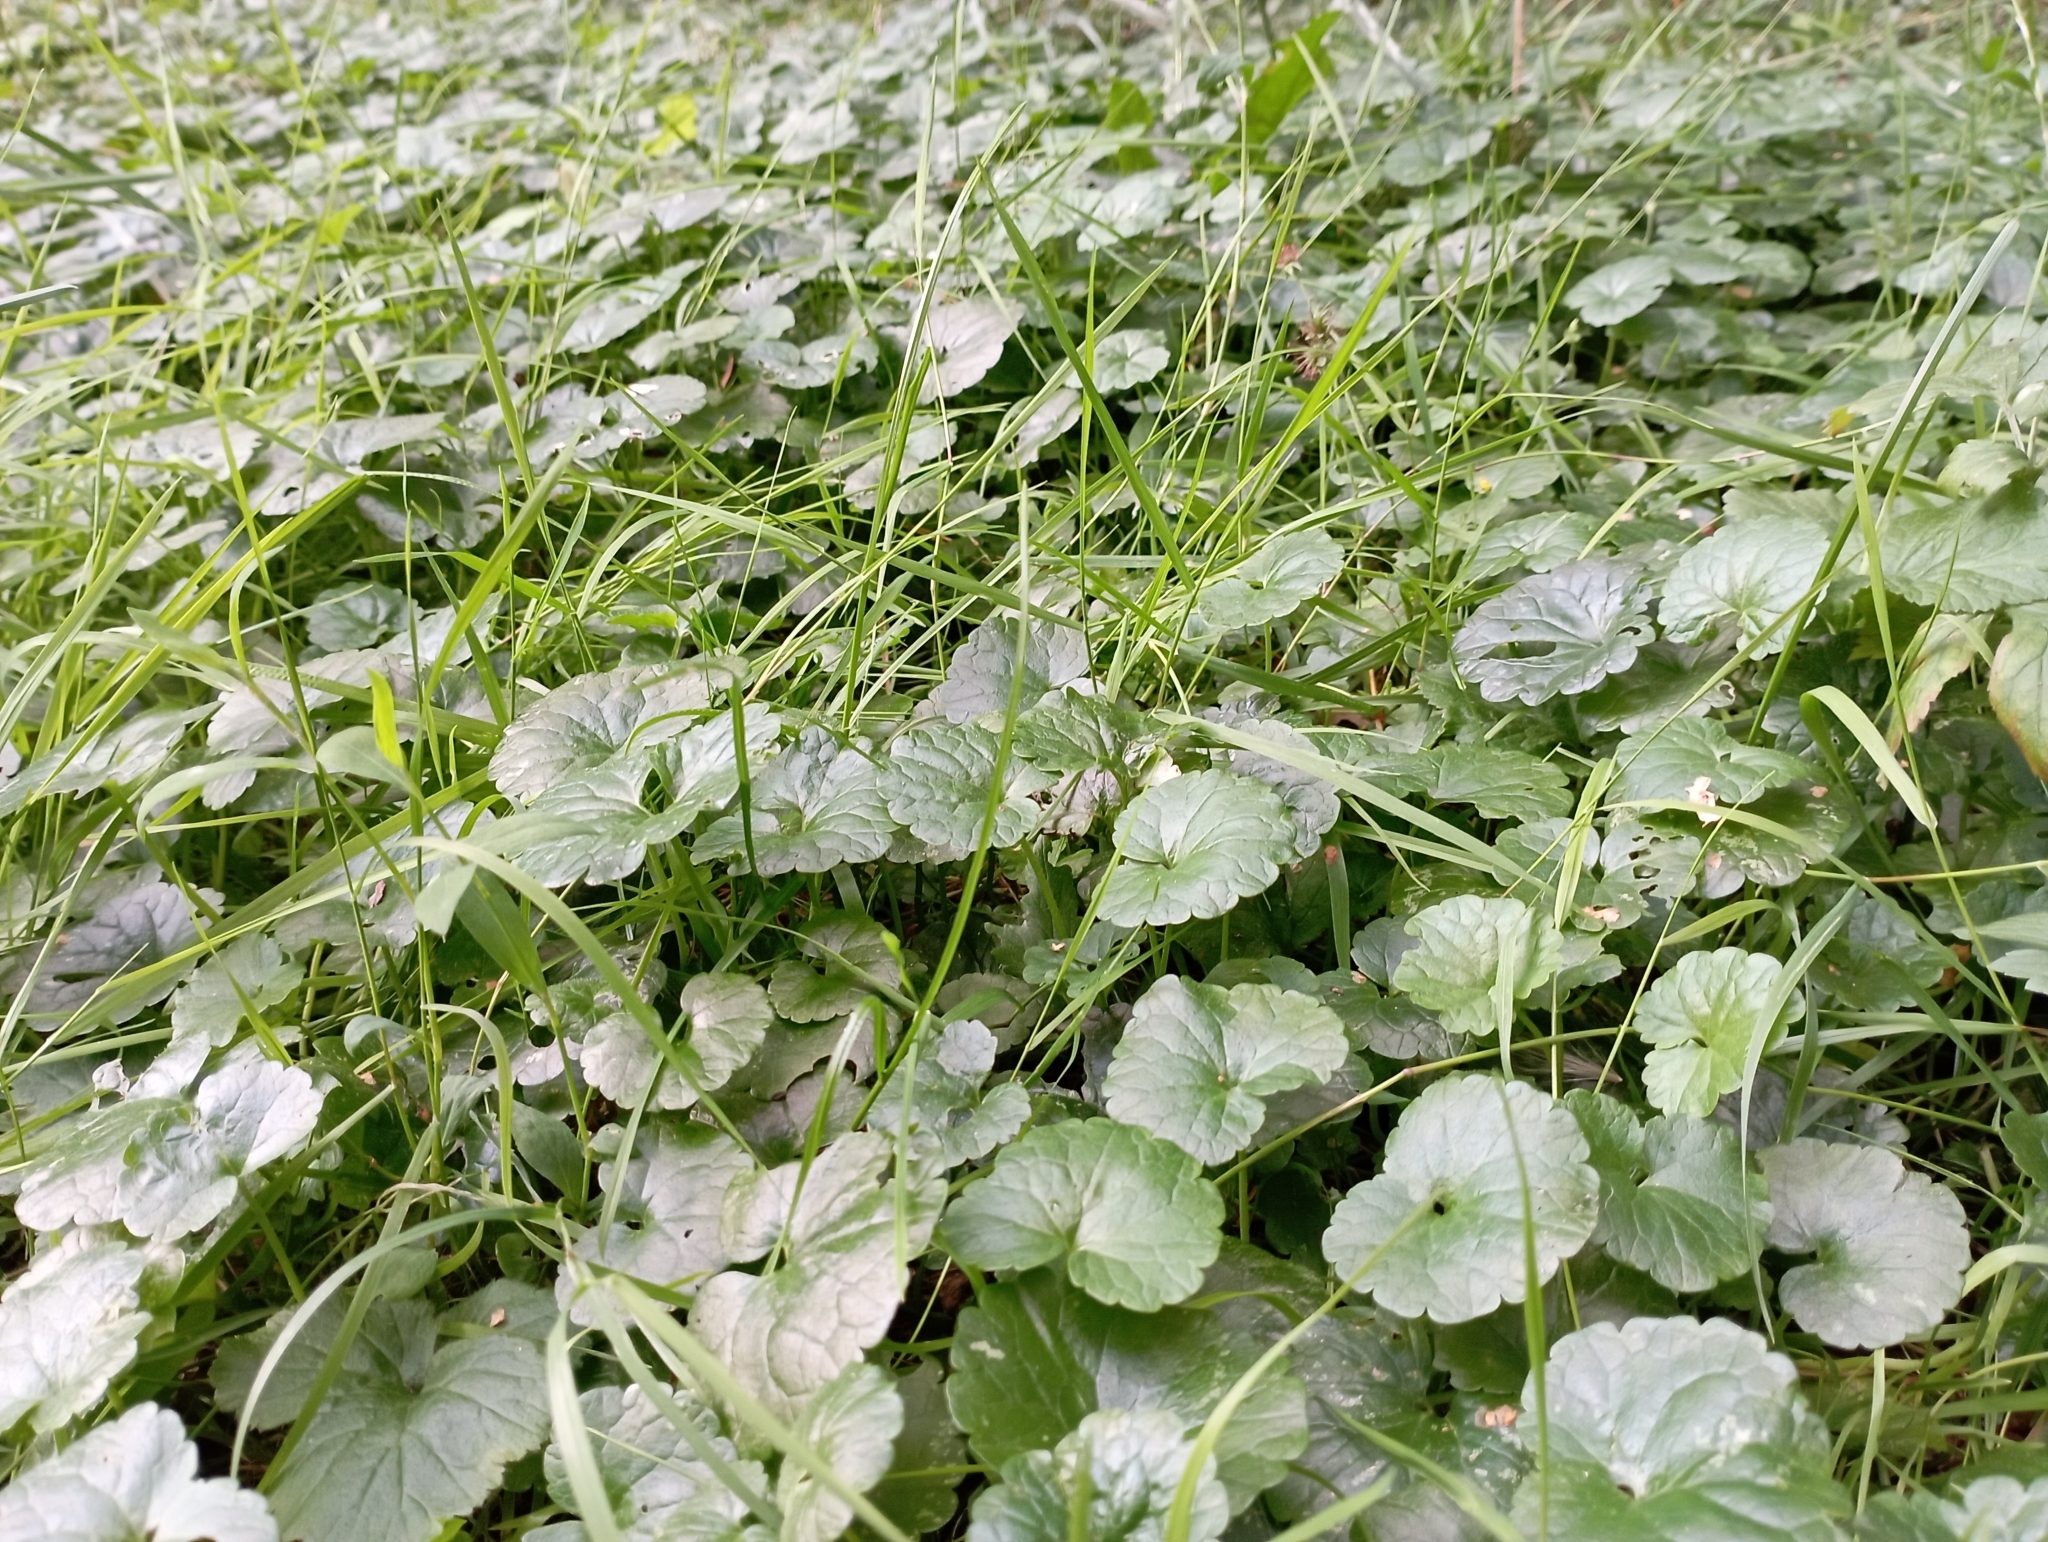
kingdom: Plantae
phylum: Tracheophyta
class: Magnoliopsida
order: Lamiales
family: Lamiaceae
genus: Glechoma
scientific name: Glechoma hederacea
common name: Ground ivy
